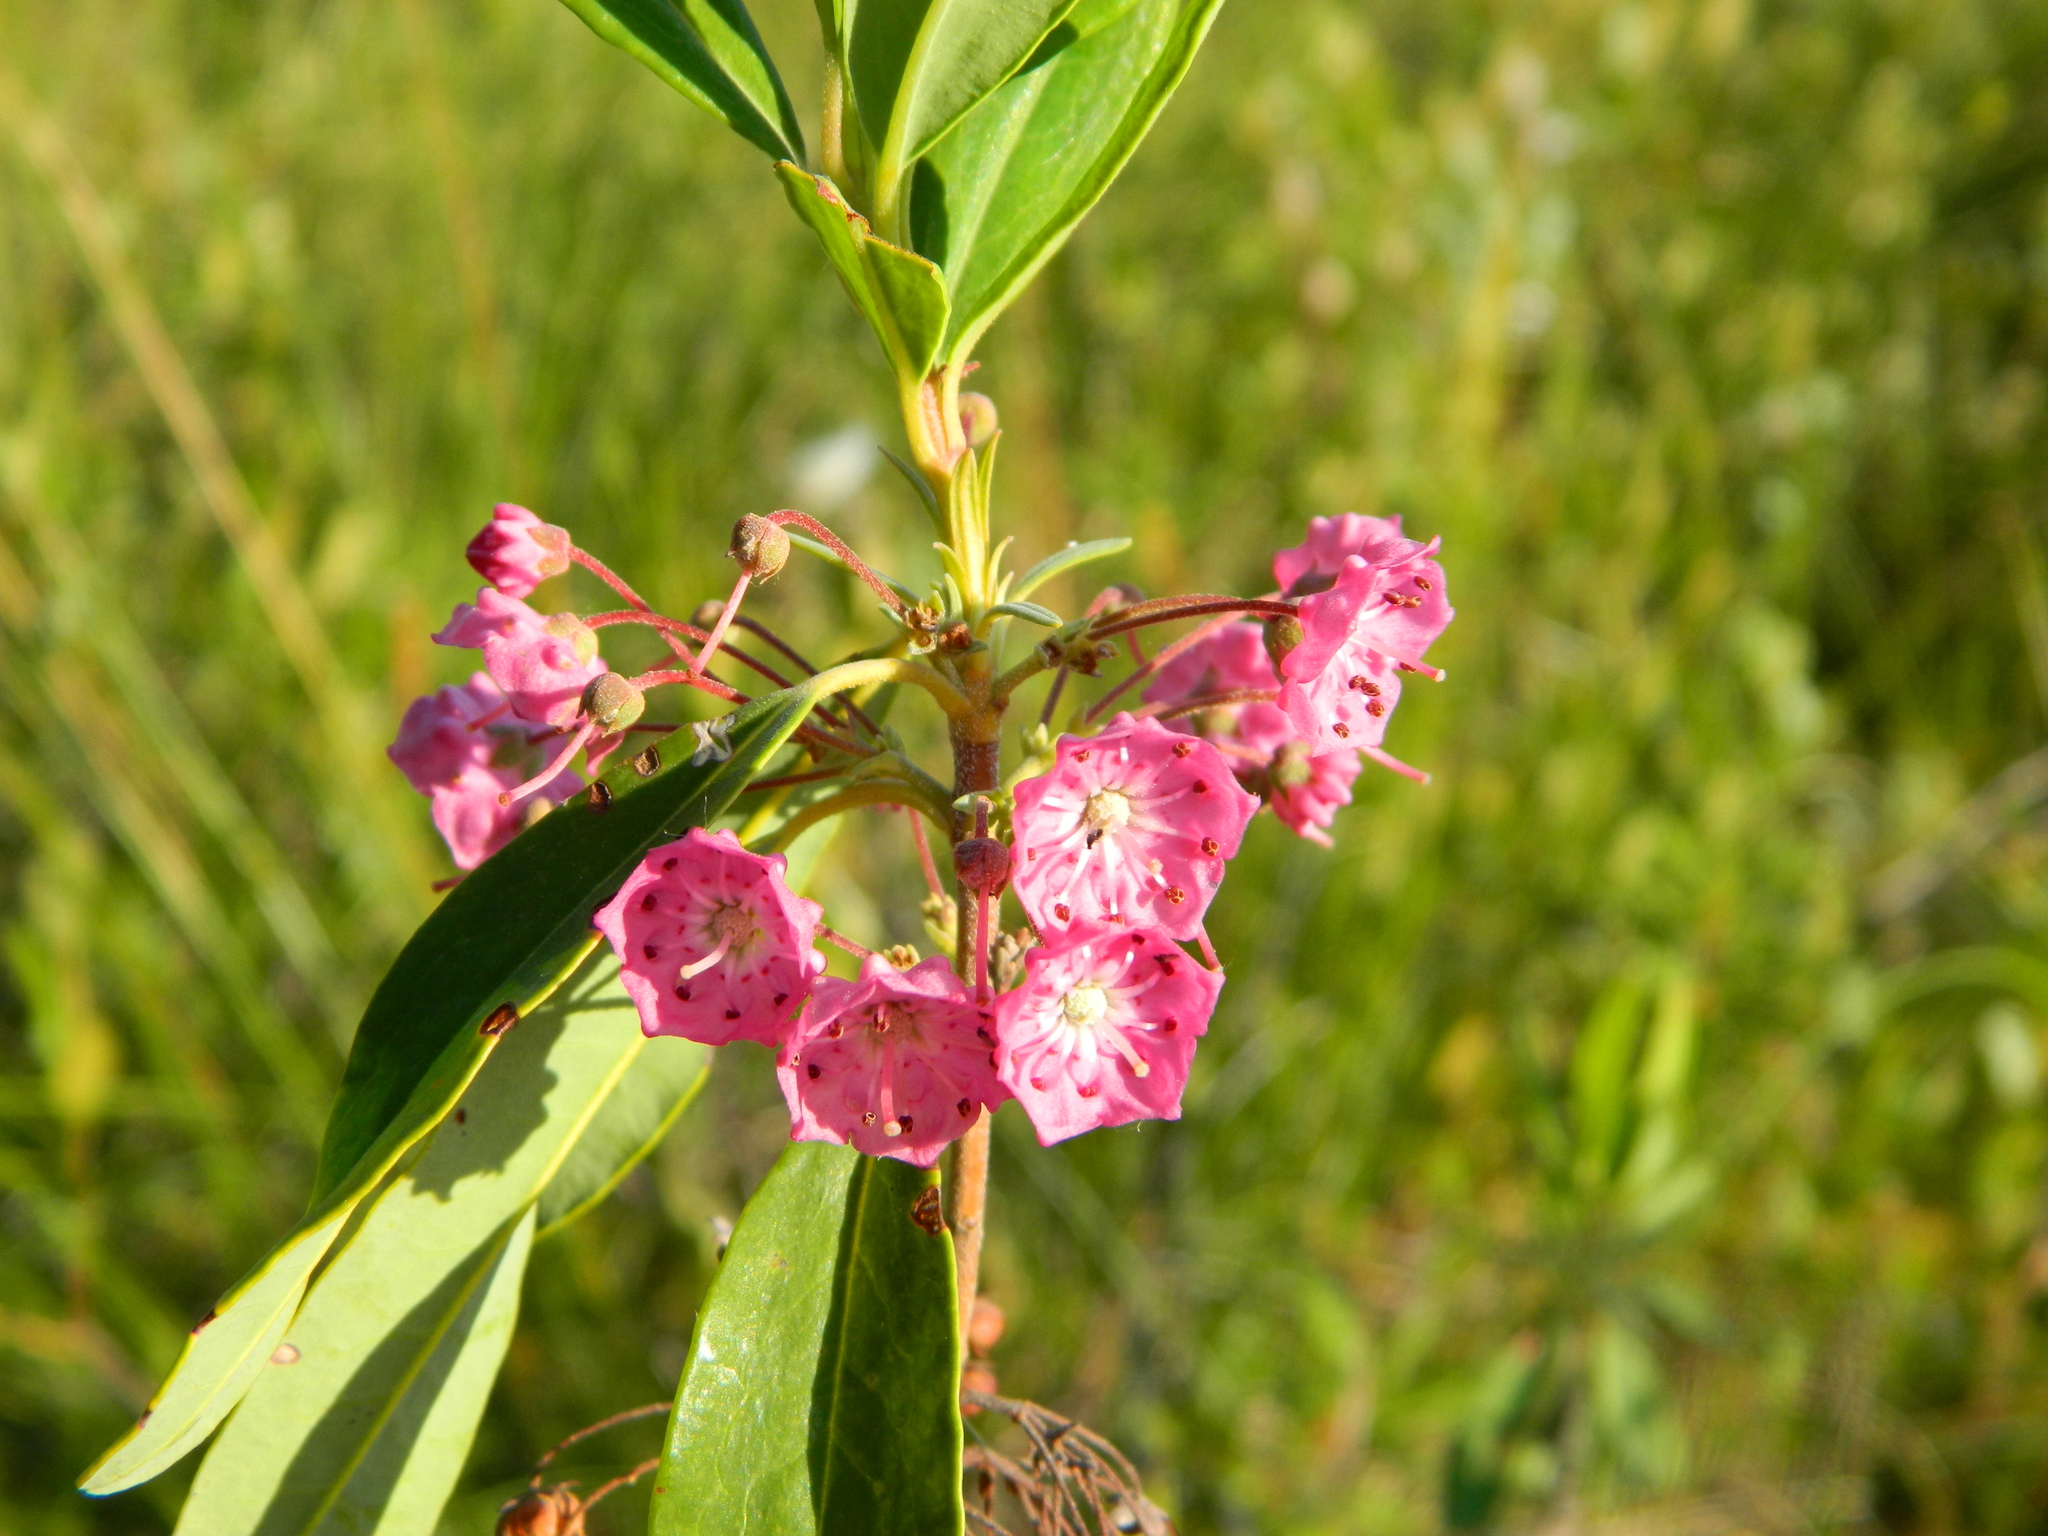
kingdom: Plantae
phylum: Tracheophyta
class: Magnoliopsida
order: Ericales
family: Ericaceae
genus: Kalmia
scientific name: Kalmia angustifolia
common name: Sheep-laurel
